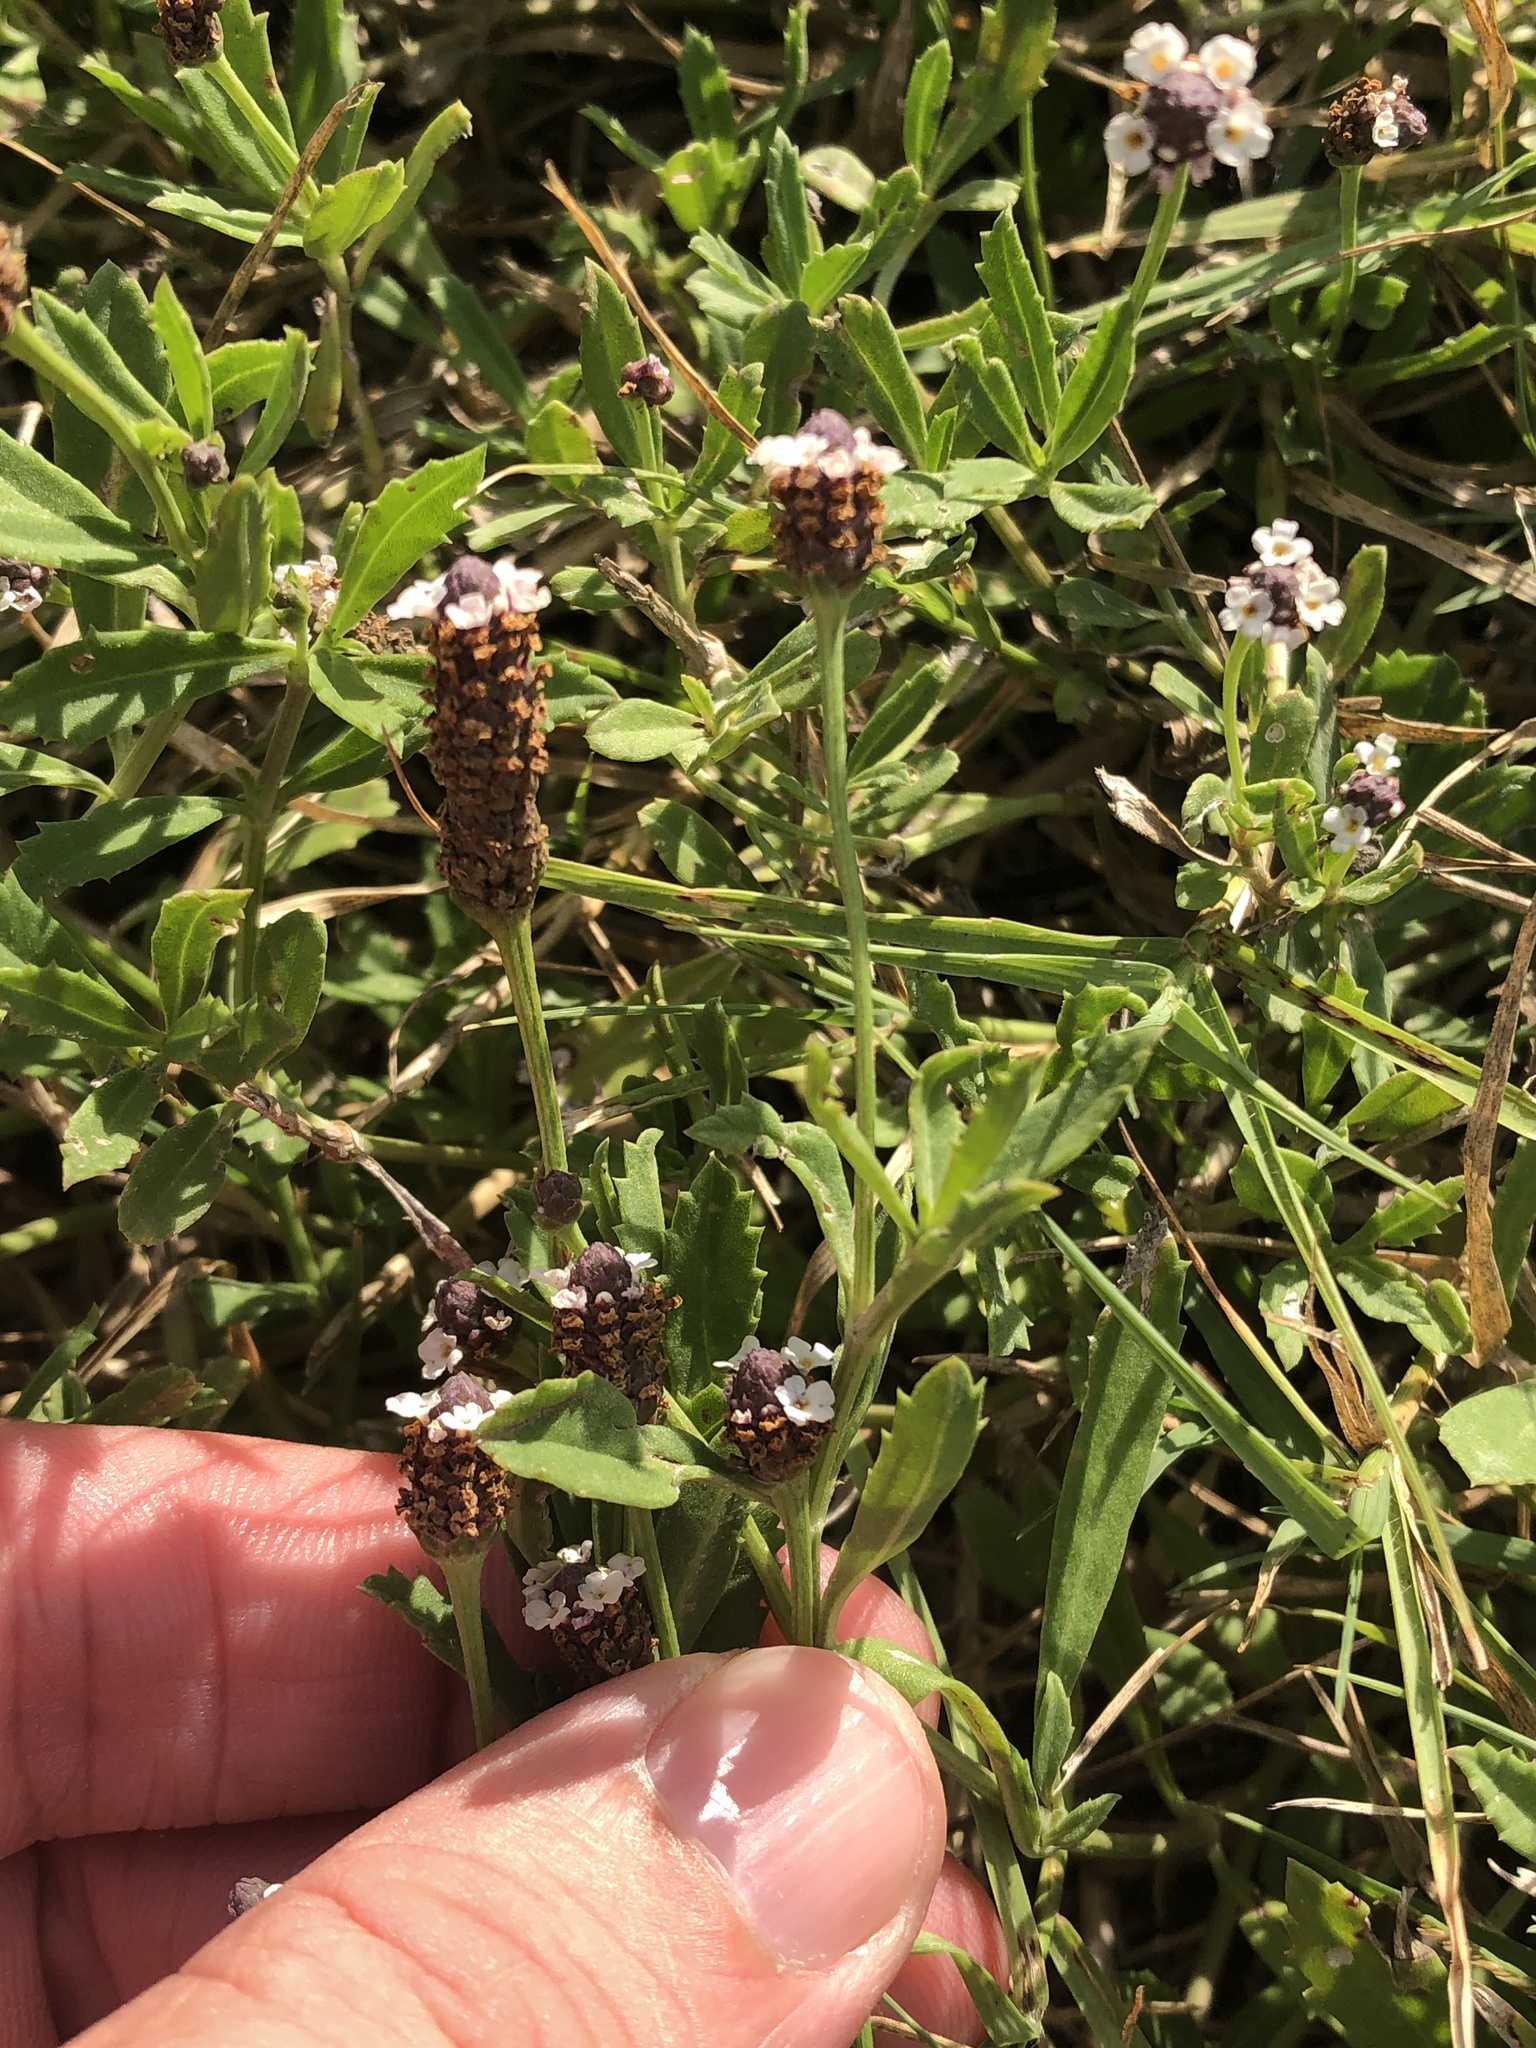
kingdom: Plantae
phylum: Tracheophyta
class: Magnoliopsida
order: Lamiales
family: Verbenaceae
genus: Phyla
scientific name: Phyla nodiflora
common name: Frogfruit
